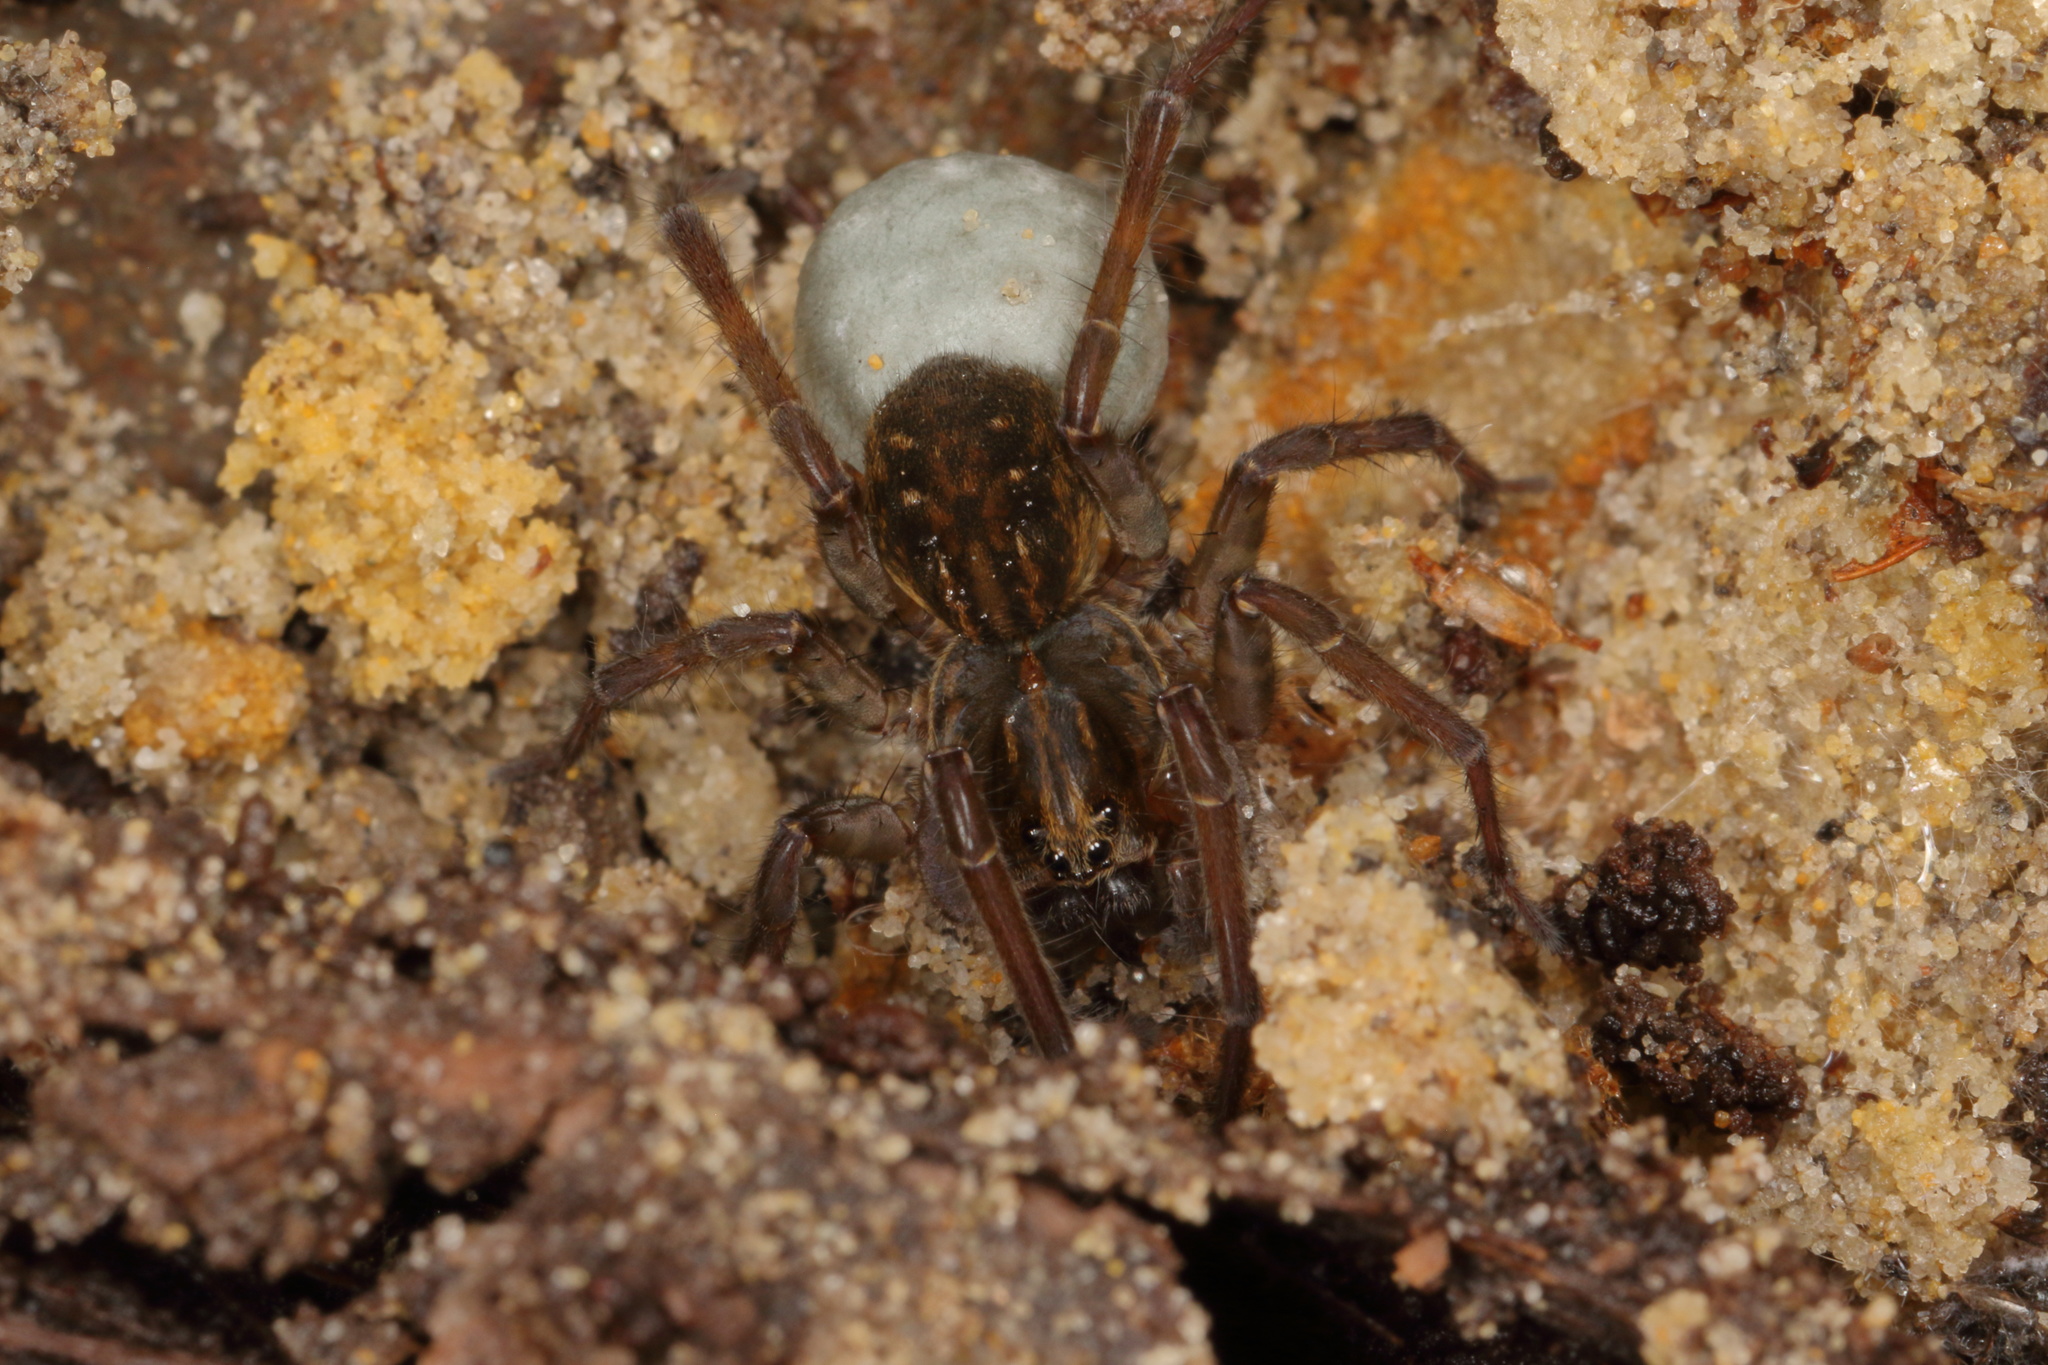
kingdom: Animalia
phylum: Arthropoda
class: Arachnida
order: Araneae
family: Lycosidae
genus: Allotrochosina
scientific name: Allotrochosina schauinslandi
